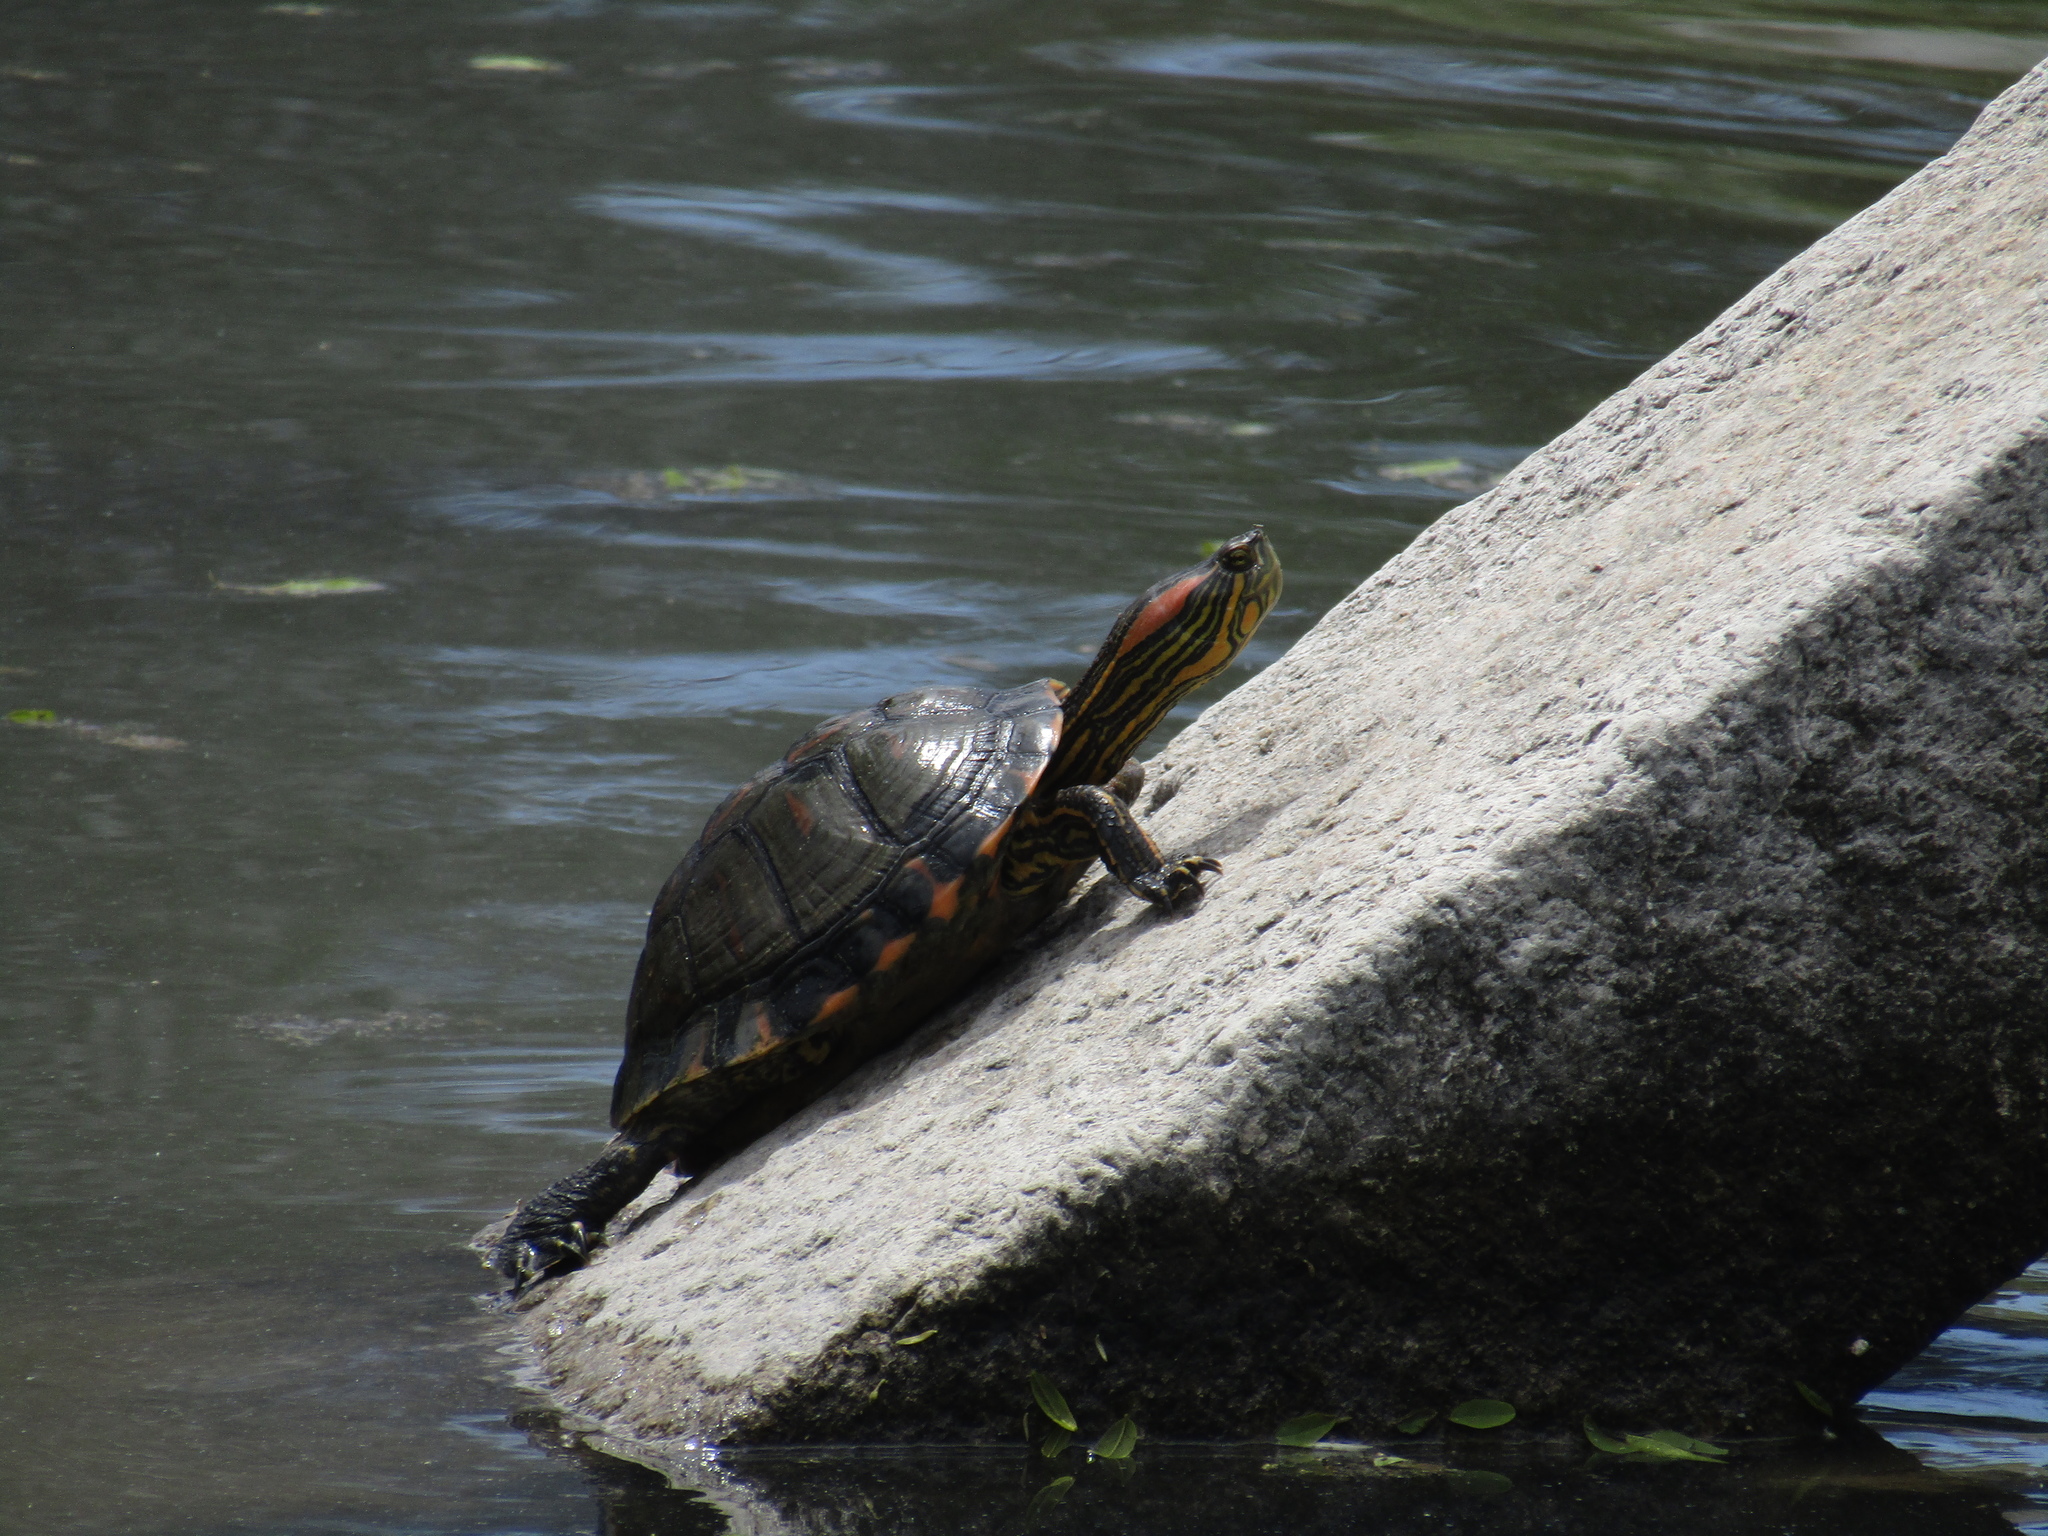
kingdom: Animalia
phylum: Chordata
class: Testudines
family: Emydidae
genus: Trachemys
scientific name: Trachemys scripta
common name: Slider
